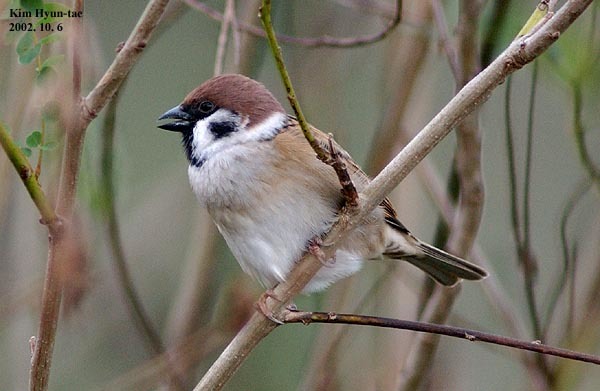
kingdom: Animalia
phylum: Chordata
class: Aves
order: Passeriformes
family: Passeridae
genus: Passer
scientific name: Passer montanus
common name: Eurasian tree sparrow
